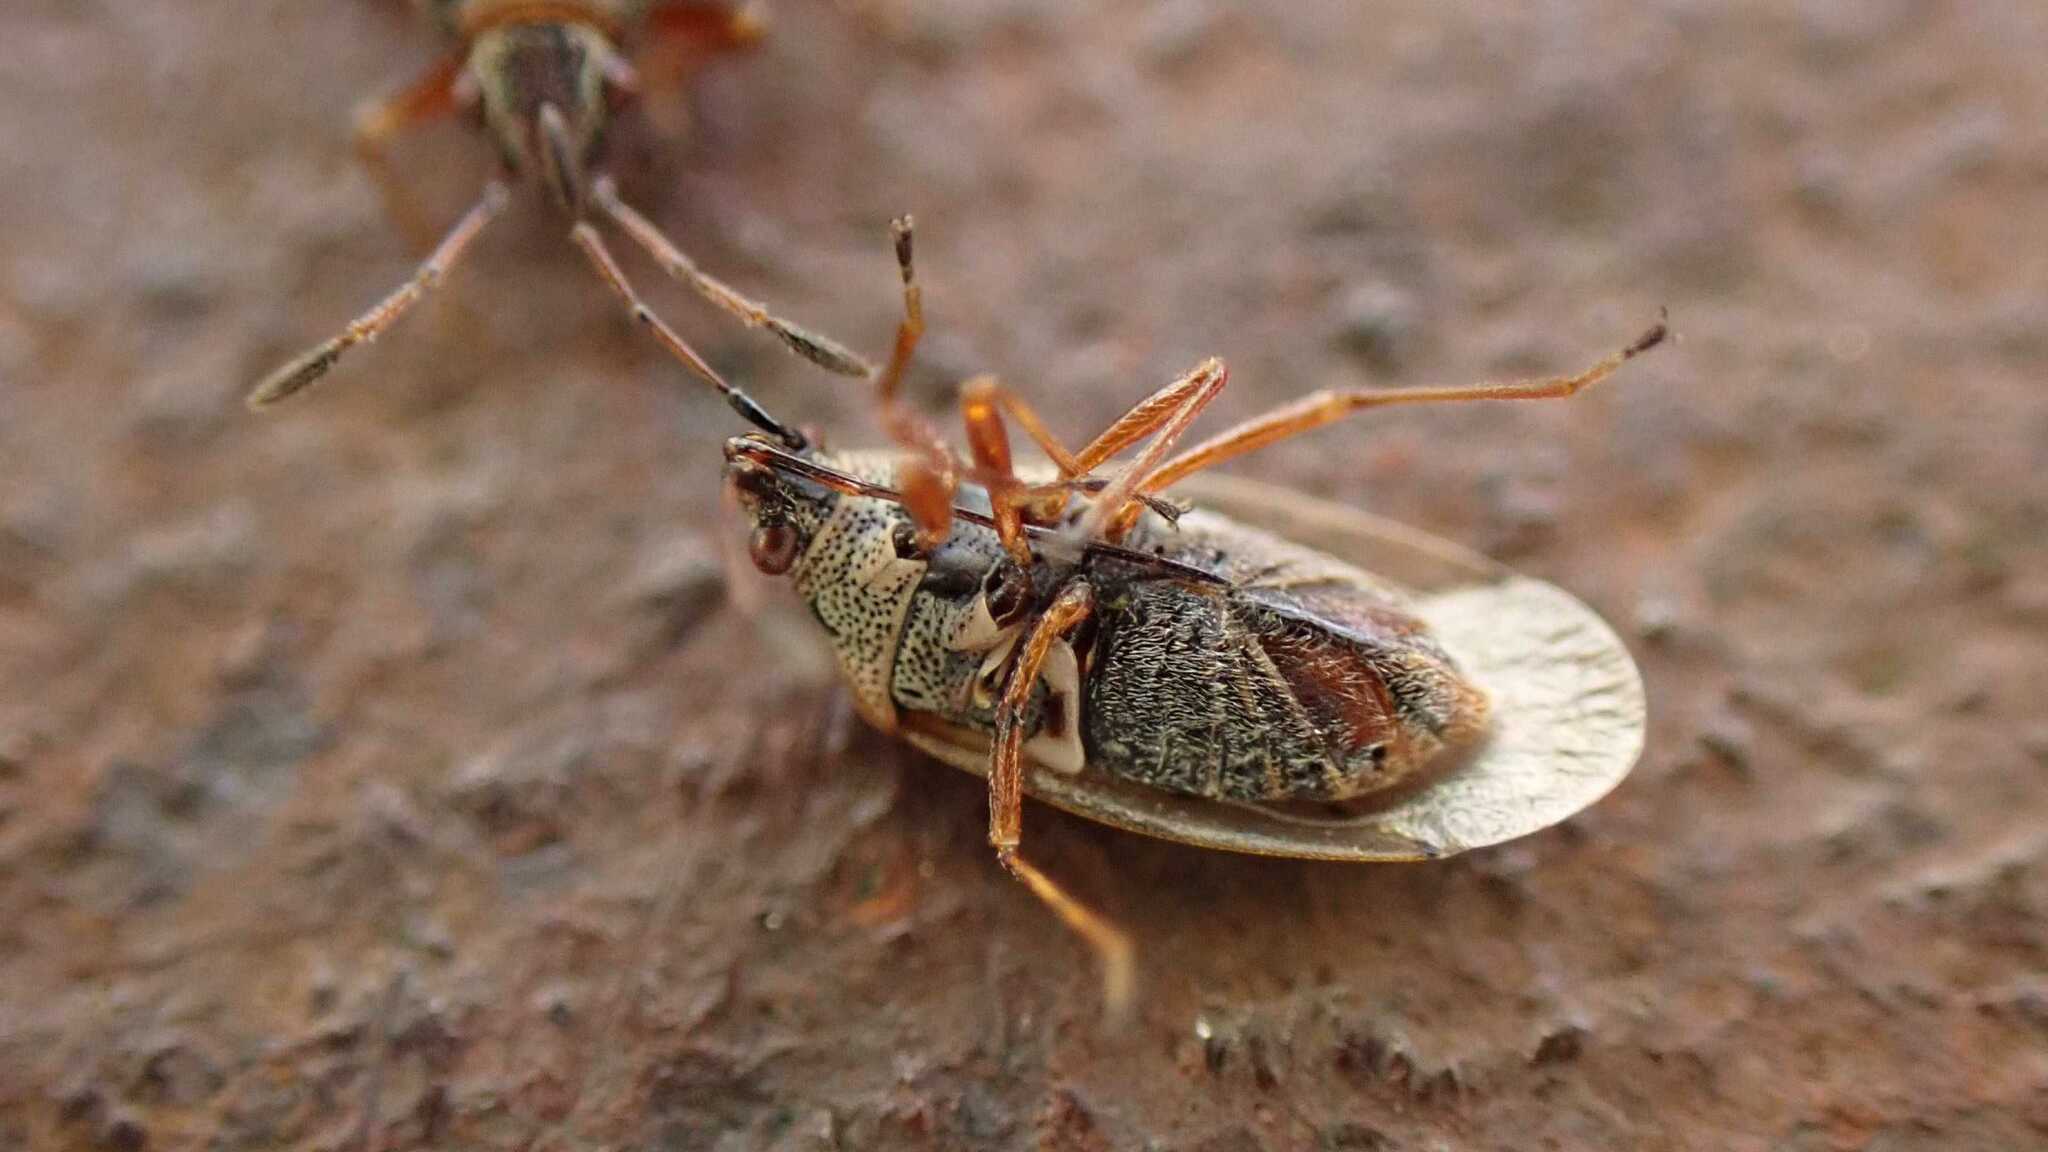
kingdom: Animalia
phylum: Arthropoda
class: Insecta
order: Hemiptera
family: Lygaeidae
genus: Kleidocerys
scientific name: Kleidocerys resedae
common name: Birch catkin bug
